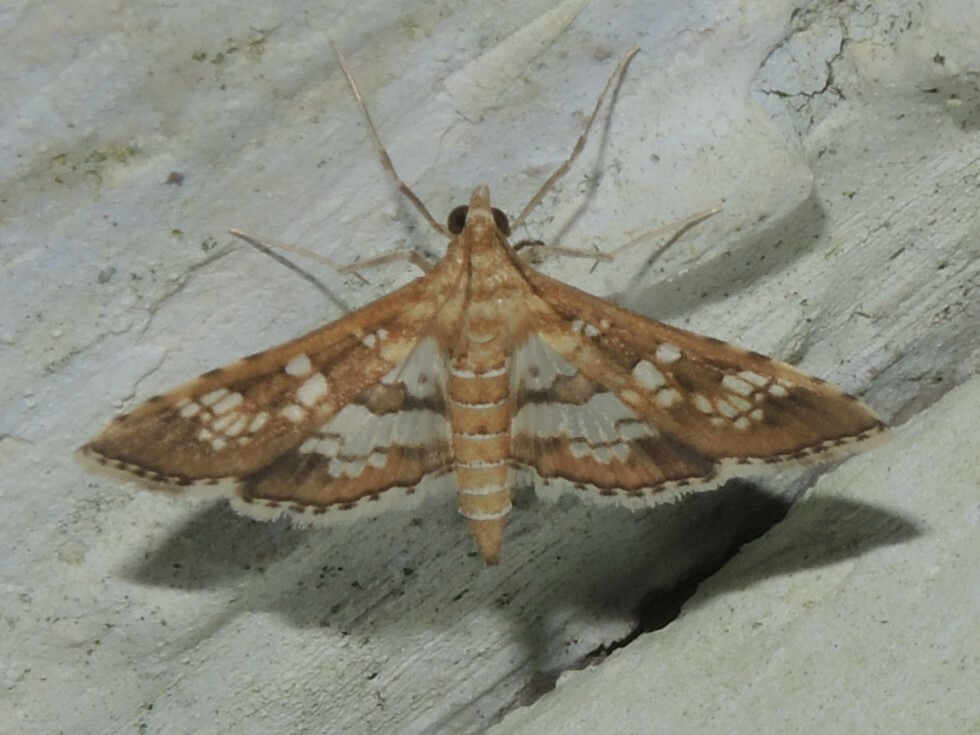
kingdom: Animalia
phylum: Arthropoda
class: Insecta
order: Lepidoptera
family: Crambidae
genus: Sameodes
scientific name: Sameodes cancellalis
